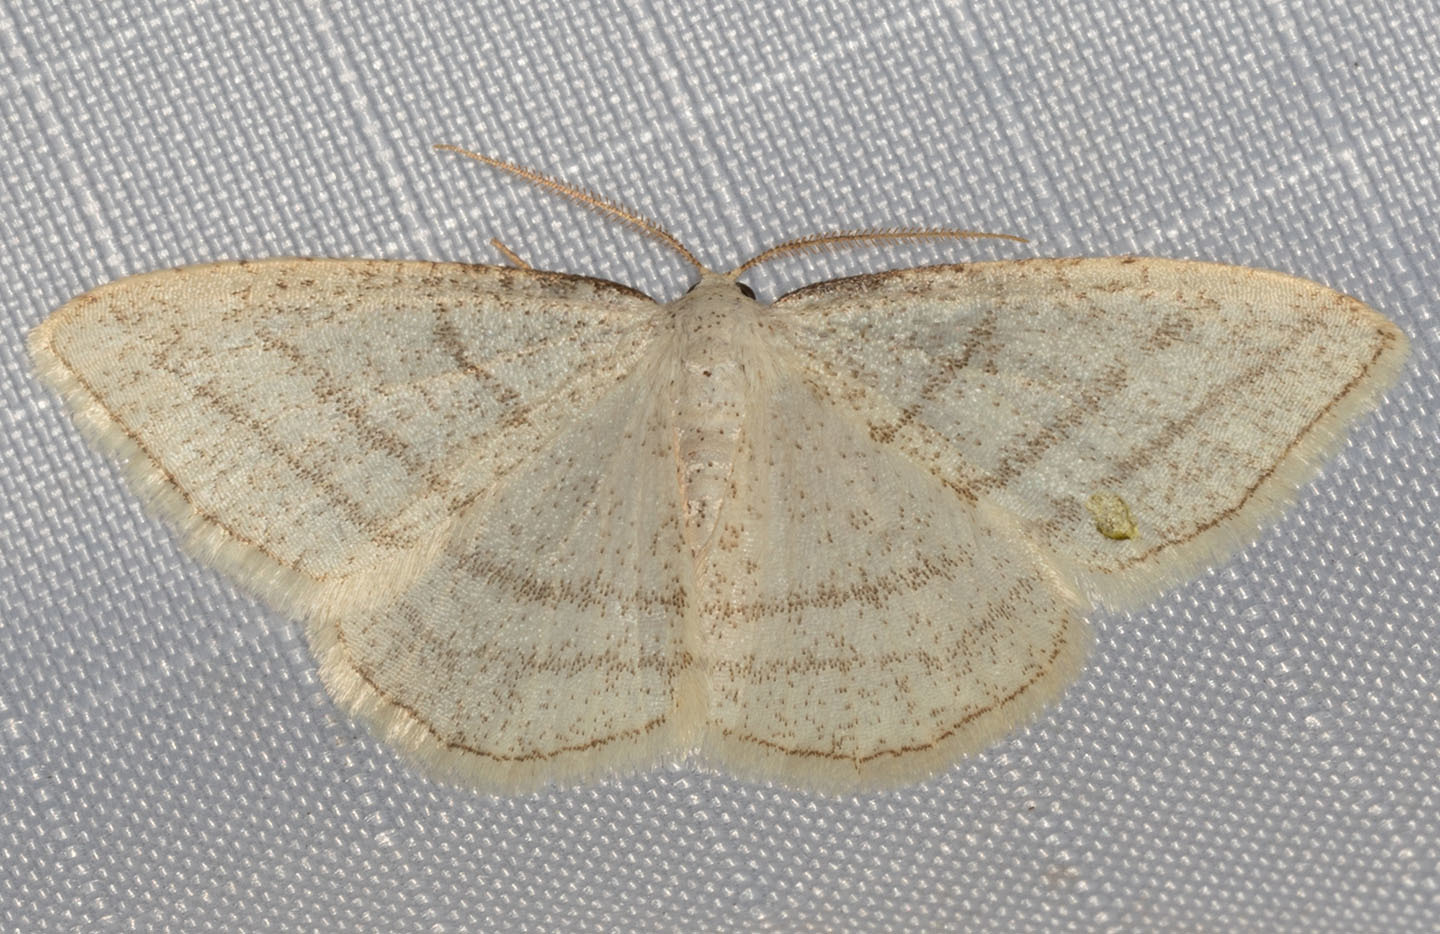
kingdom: Animalia
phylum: Arthropoda
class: Insecta
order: Lepidoptera
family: Geometridae
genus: Protitame
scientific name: Protitame subalbaria
